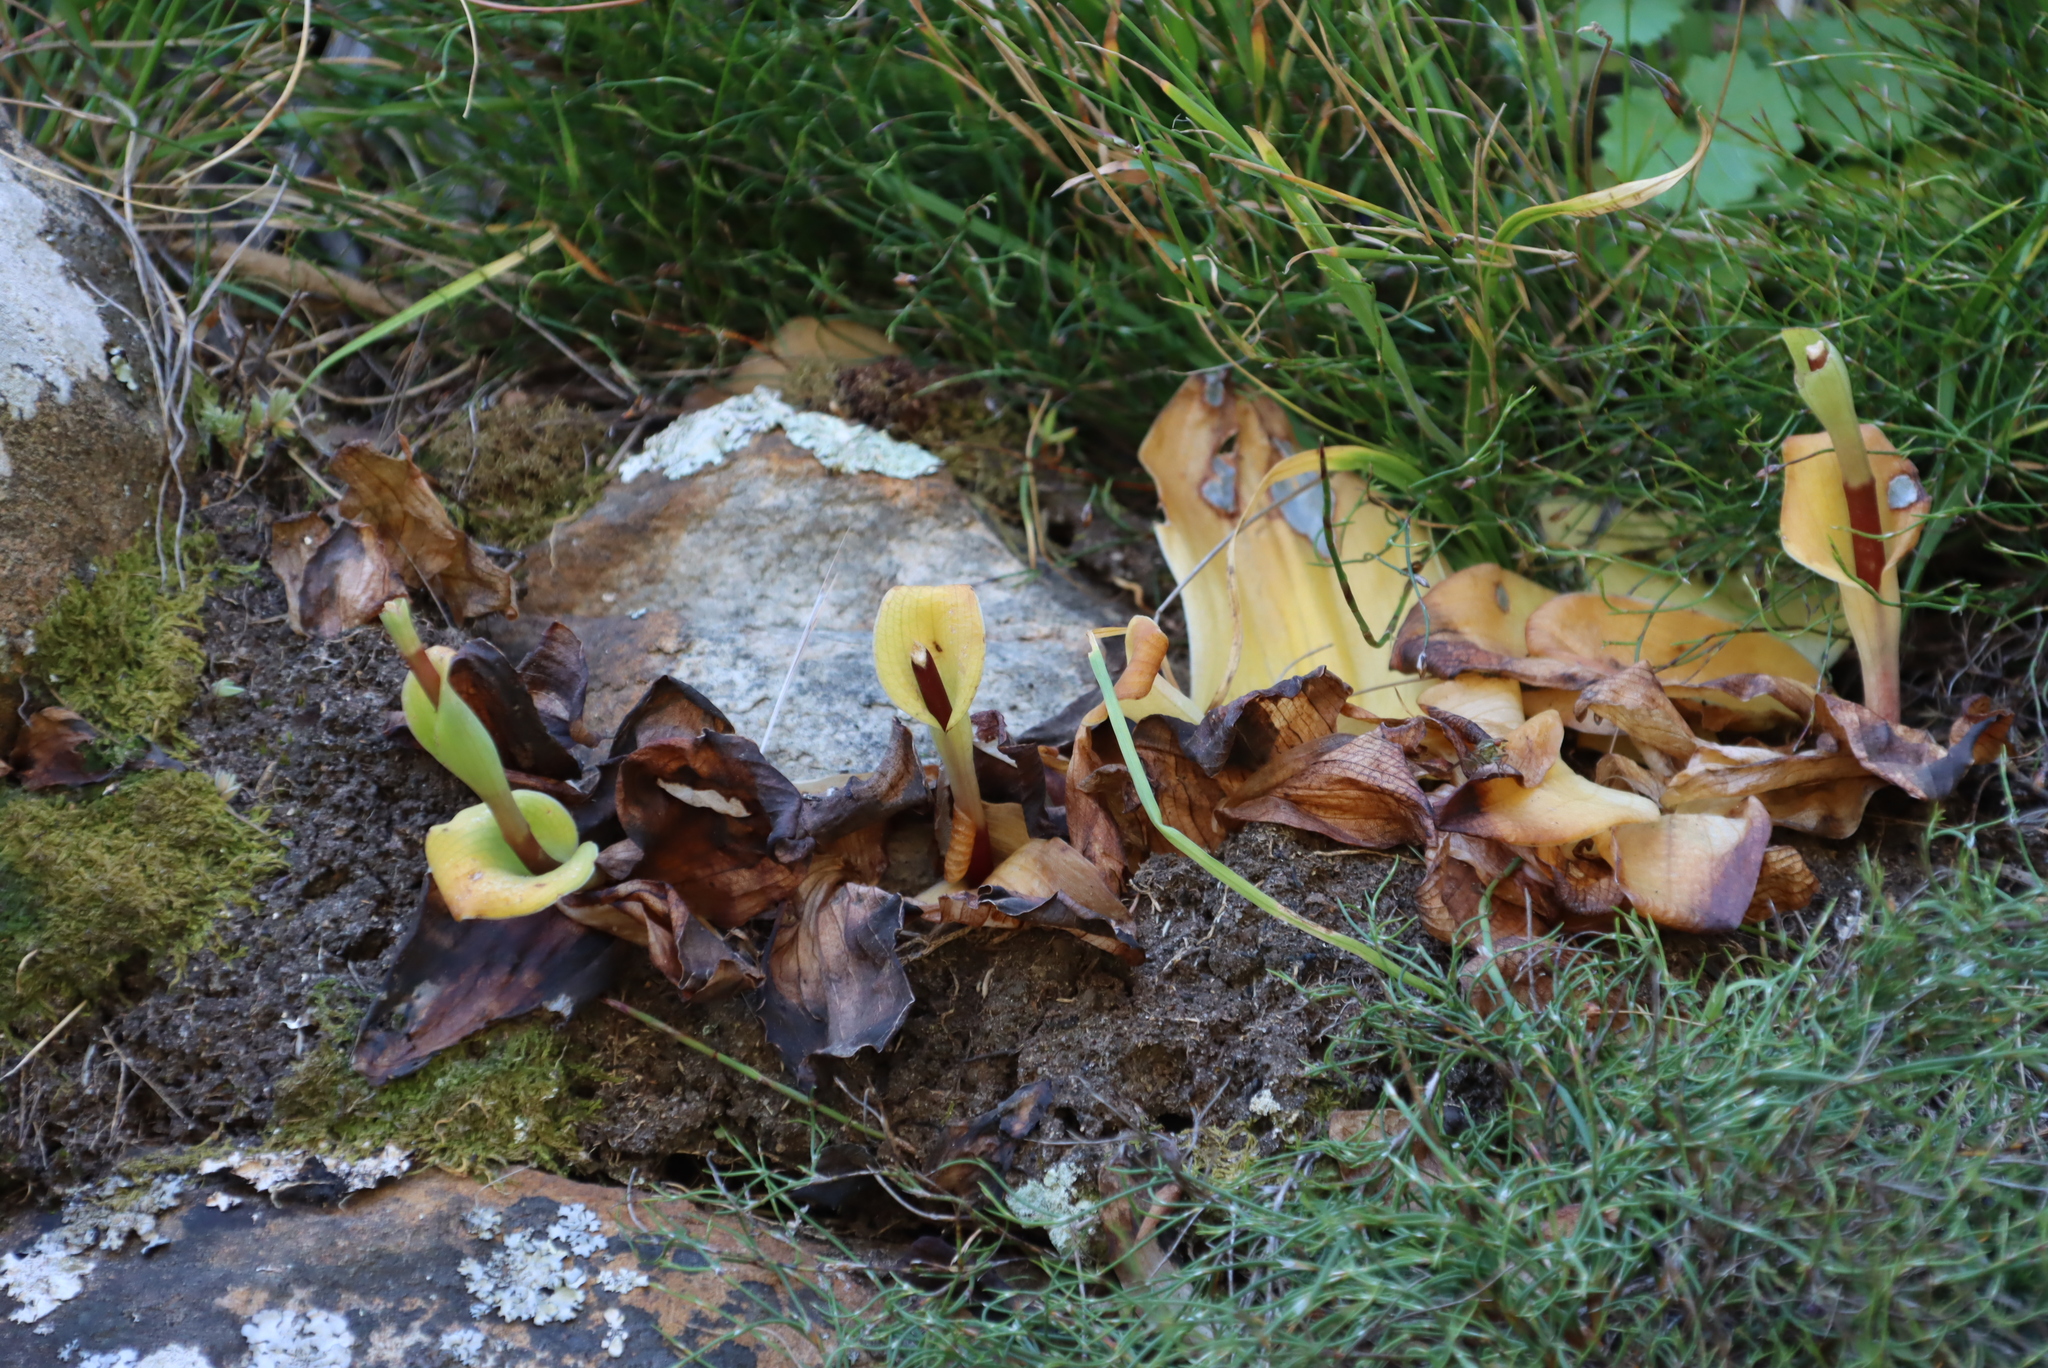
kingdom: Plantae
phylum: Tracheophyta
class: Liliopsida
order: Asparagales
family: Orchidaceae
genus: Satyrium
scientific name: Satyrium humile
